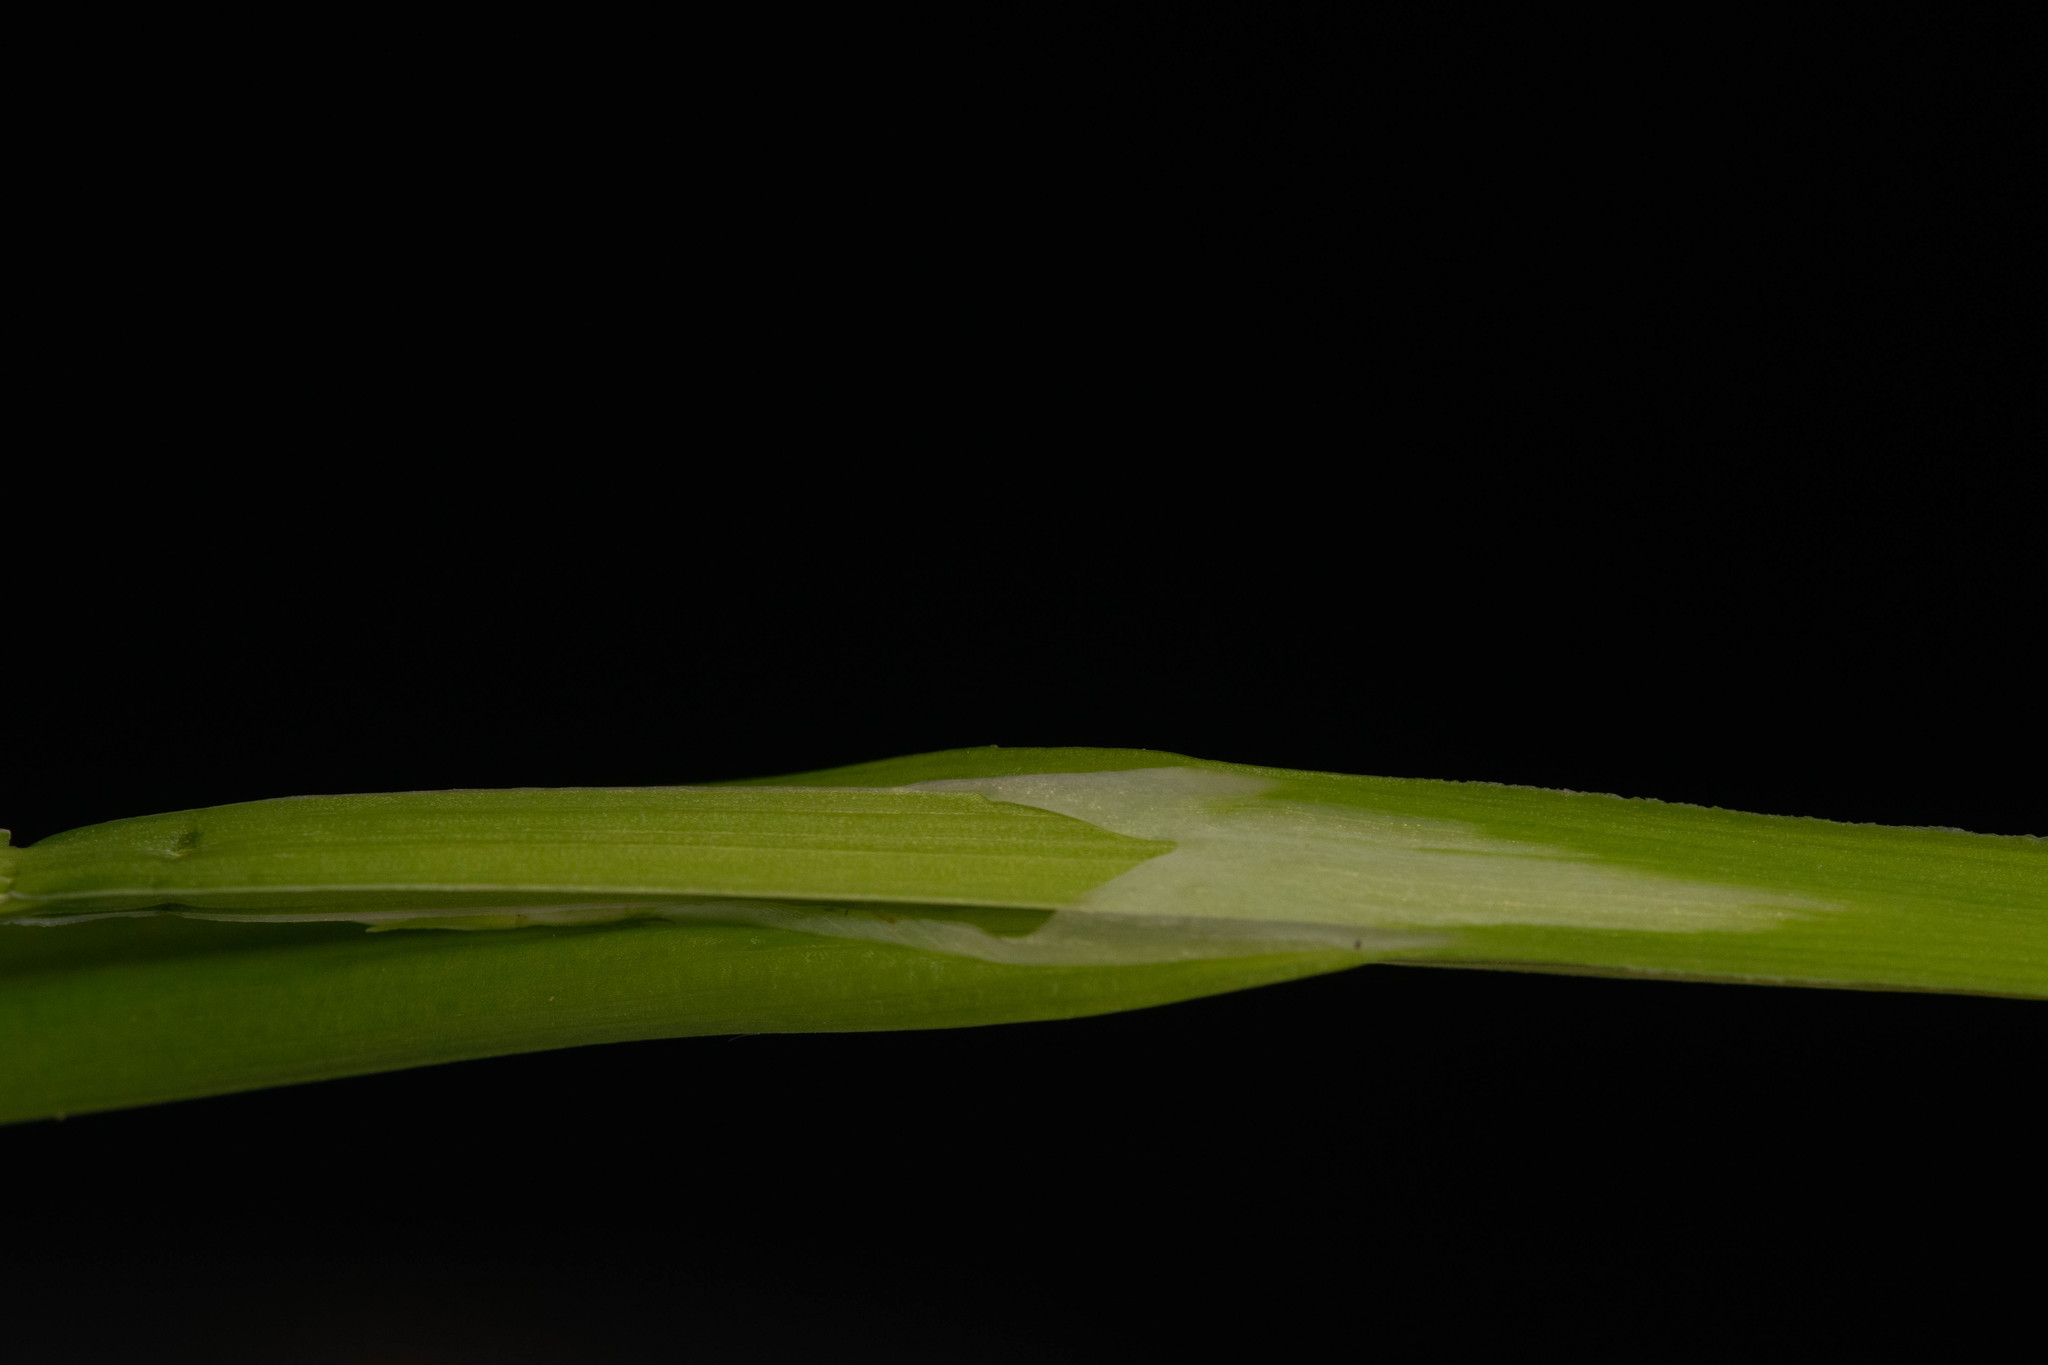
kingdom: Plantae
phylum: Tracheophyta
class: Liliopsida
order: Poales
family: Cyperaceae
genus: Carex
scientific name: Carex laxiflora
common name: Beech wood sedge
